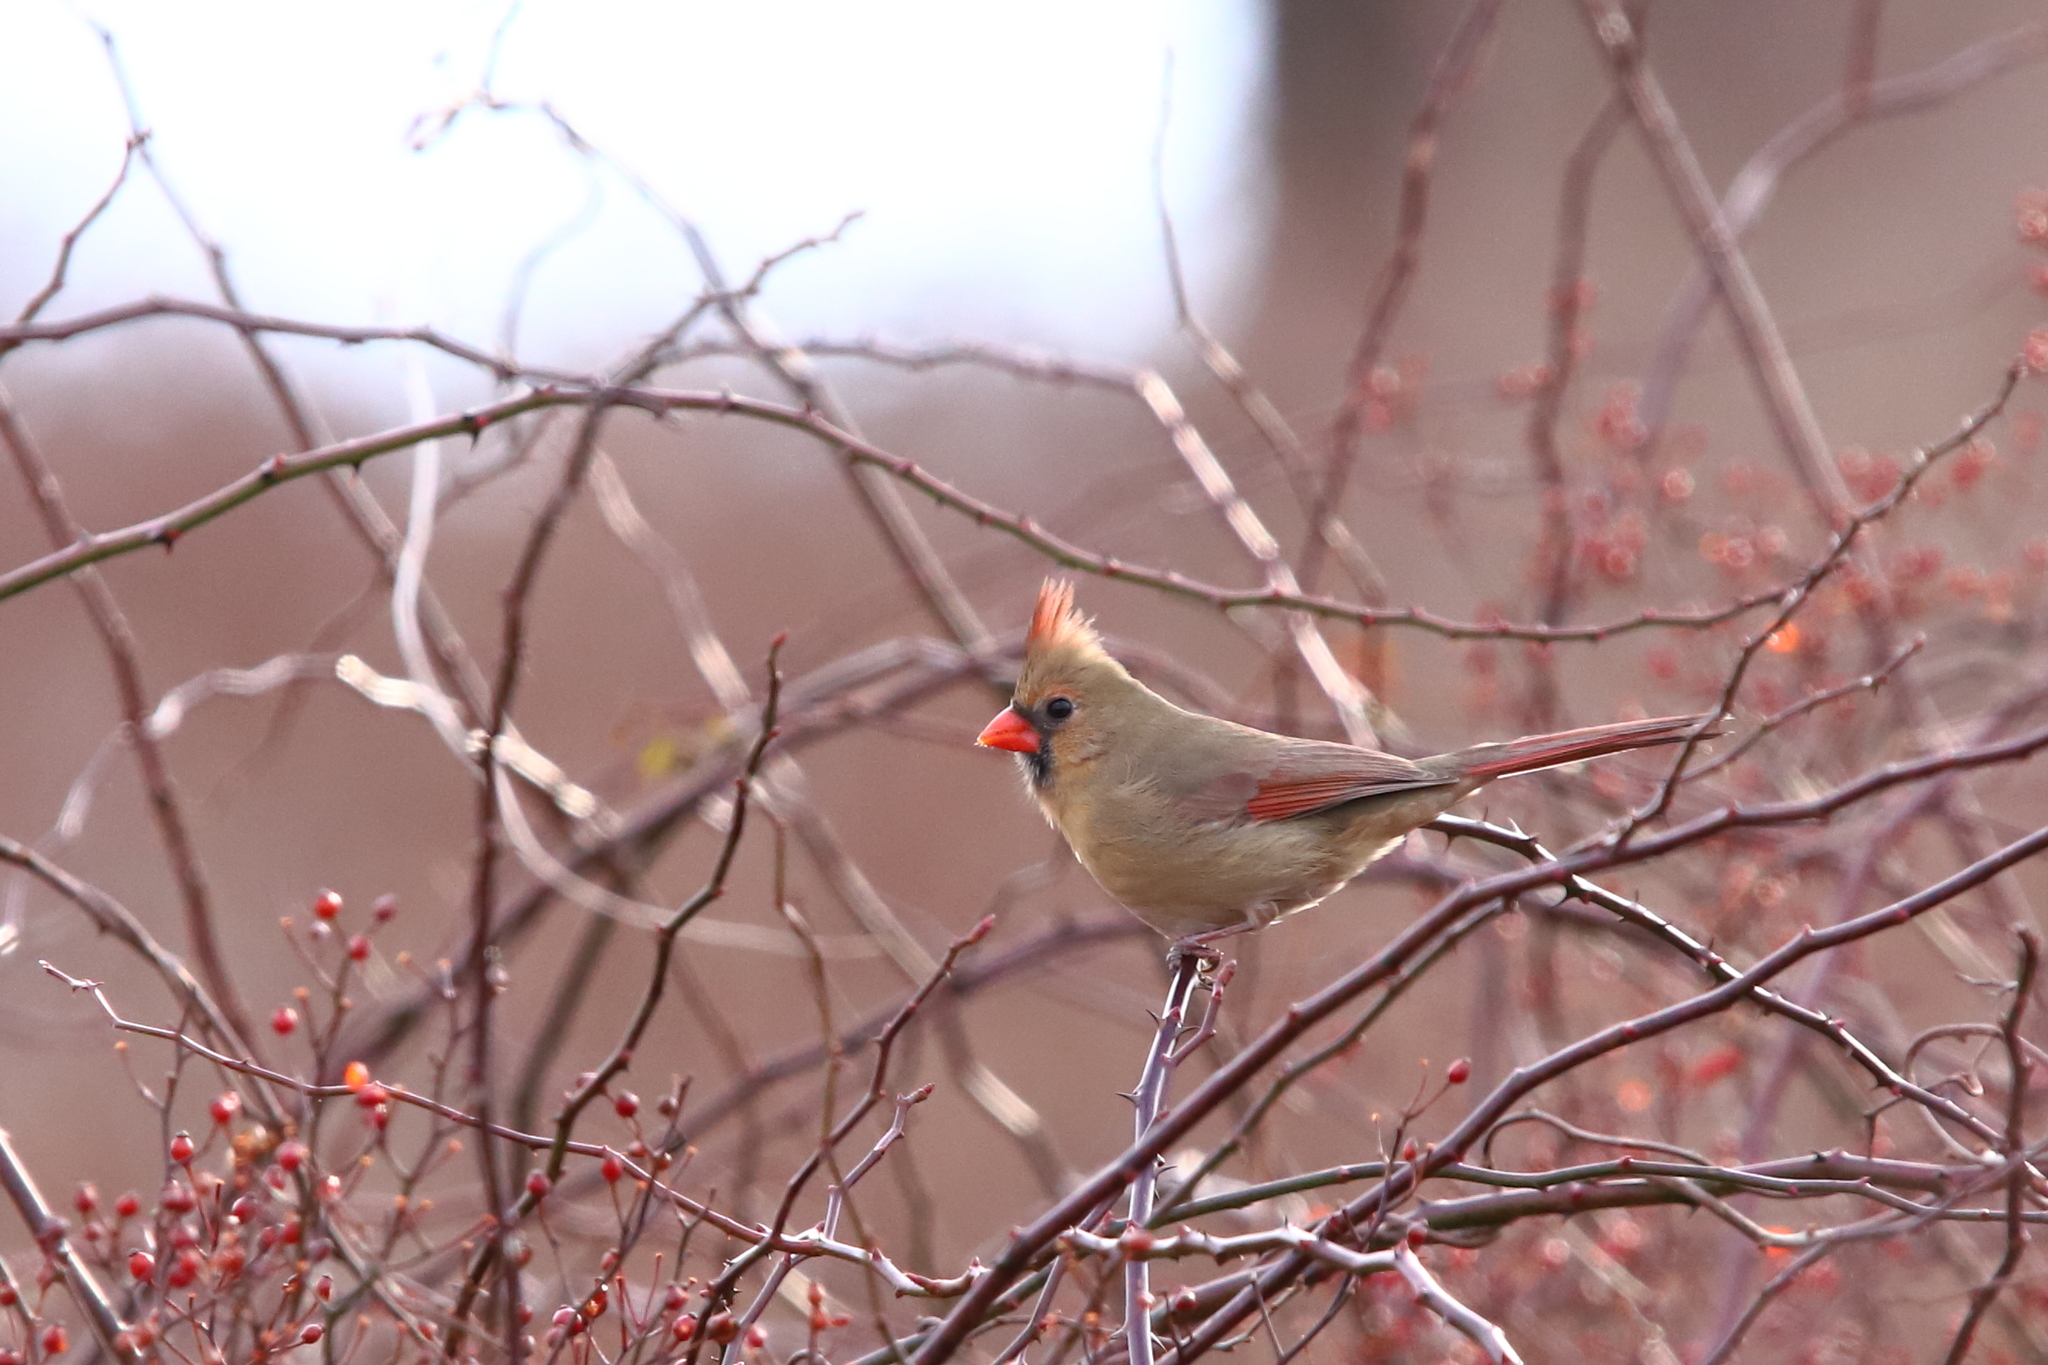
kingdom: Animalia
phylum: Chordata
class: Aves
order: Passeriformes
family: Cardinalidae
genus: Cardinalis
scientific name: Cardinalis cardinalis
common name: Northern cardinal
